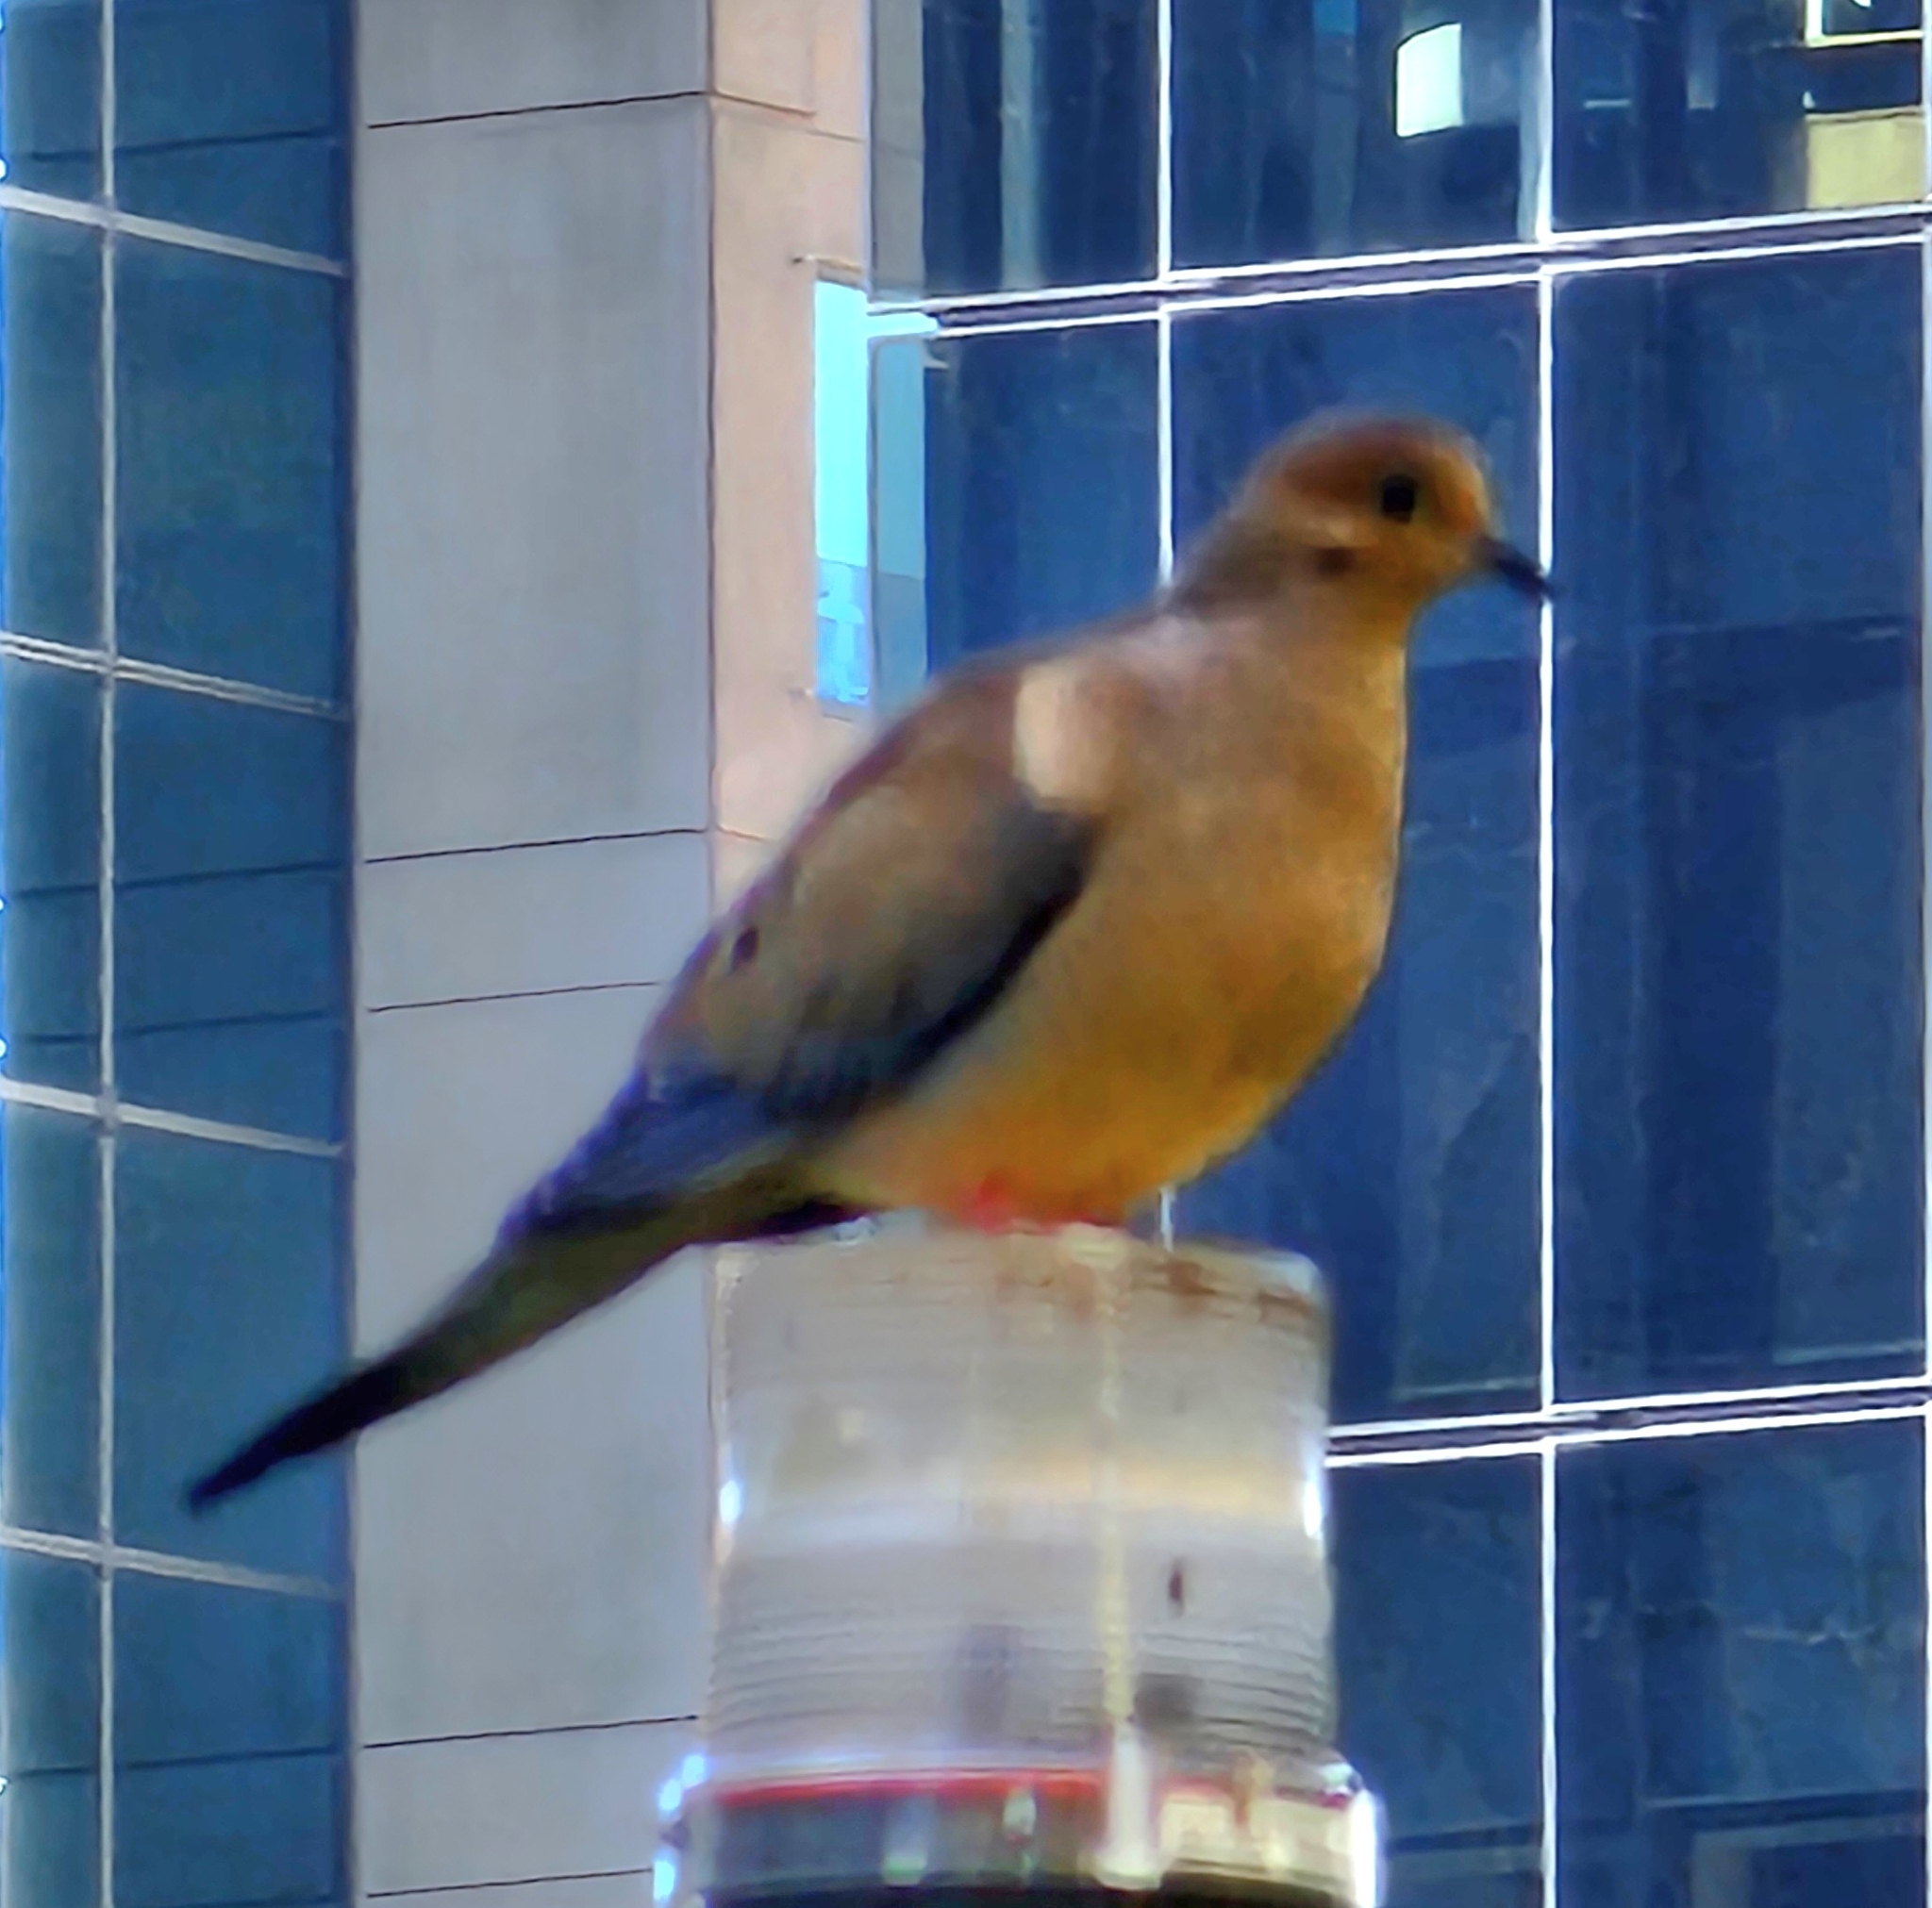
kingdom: Animalia
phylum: Chordata
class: Aves
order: Columbiformes
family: Columbidae
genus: Zenaida
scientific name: Zenaida macroura
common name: Mourning dove
